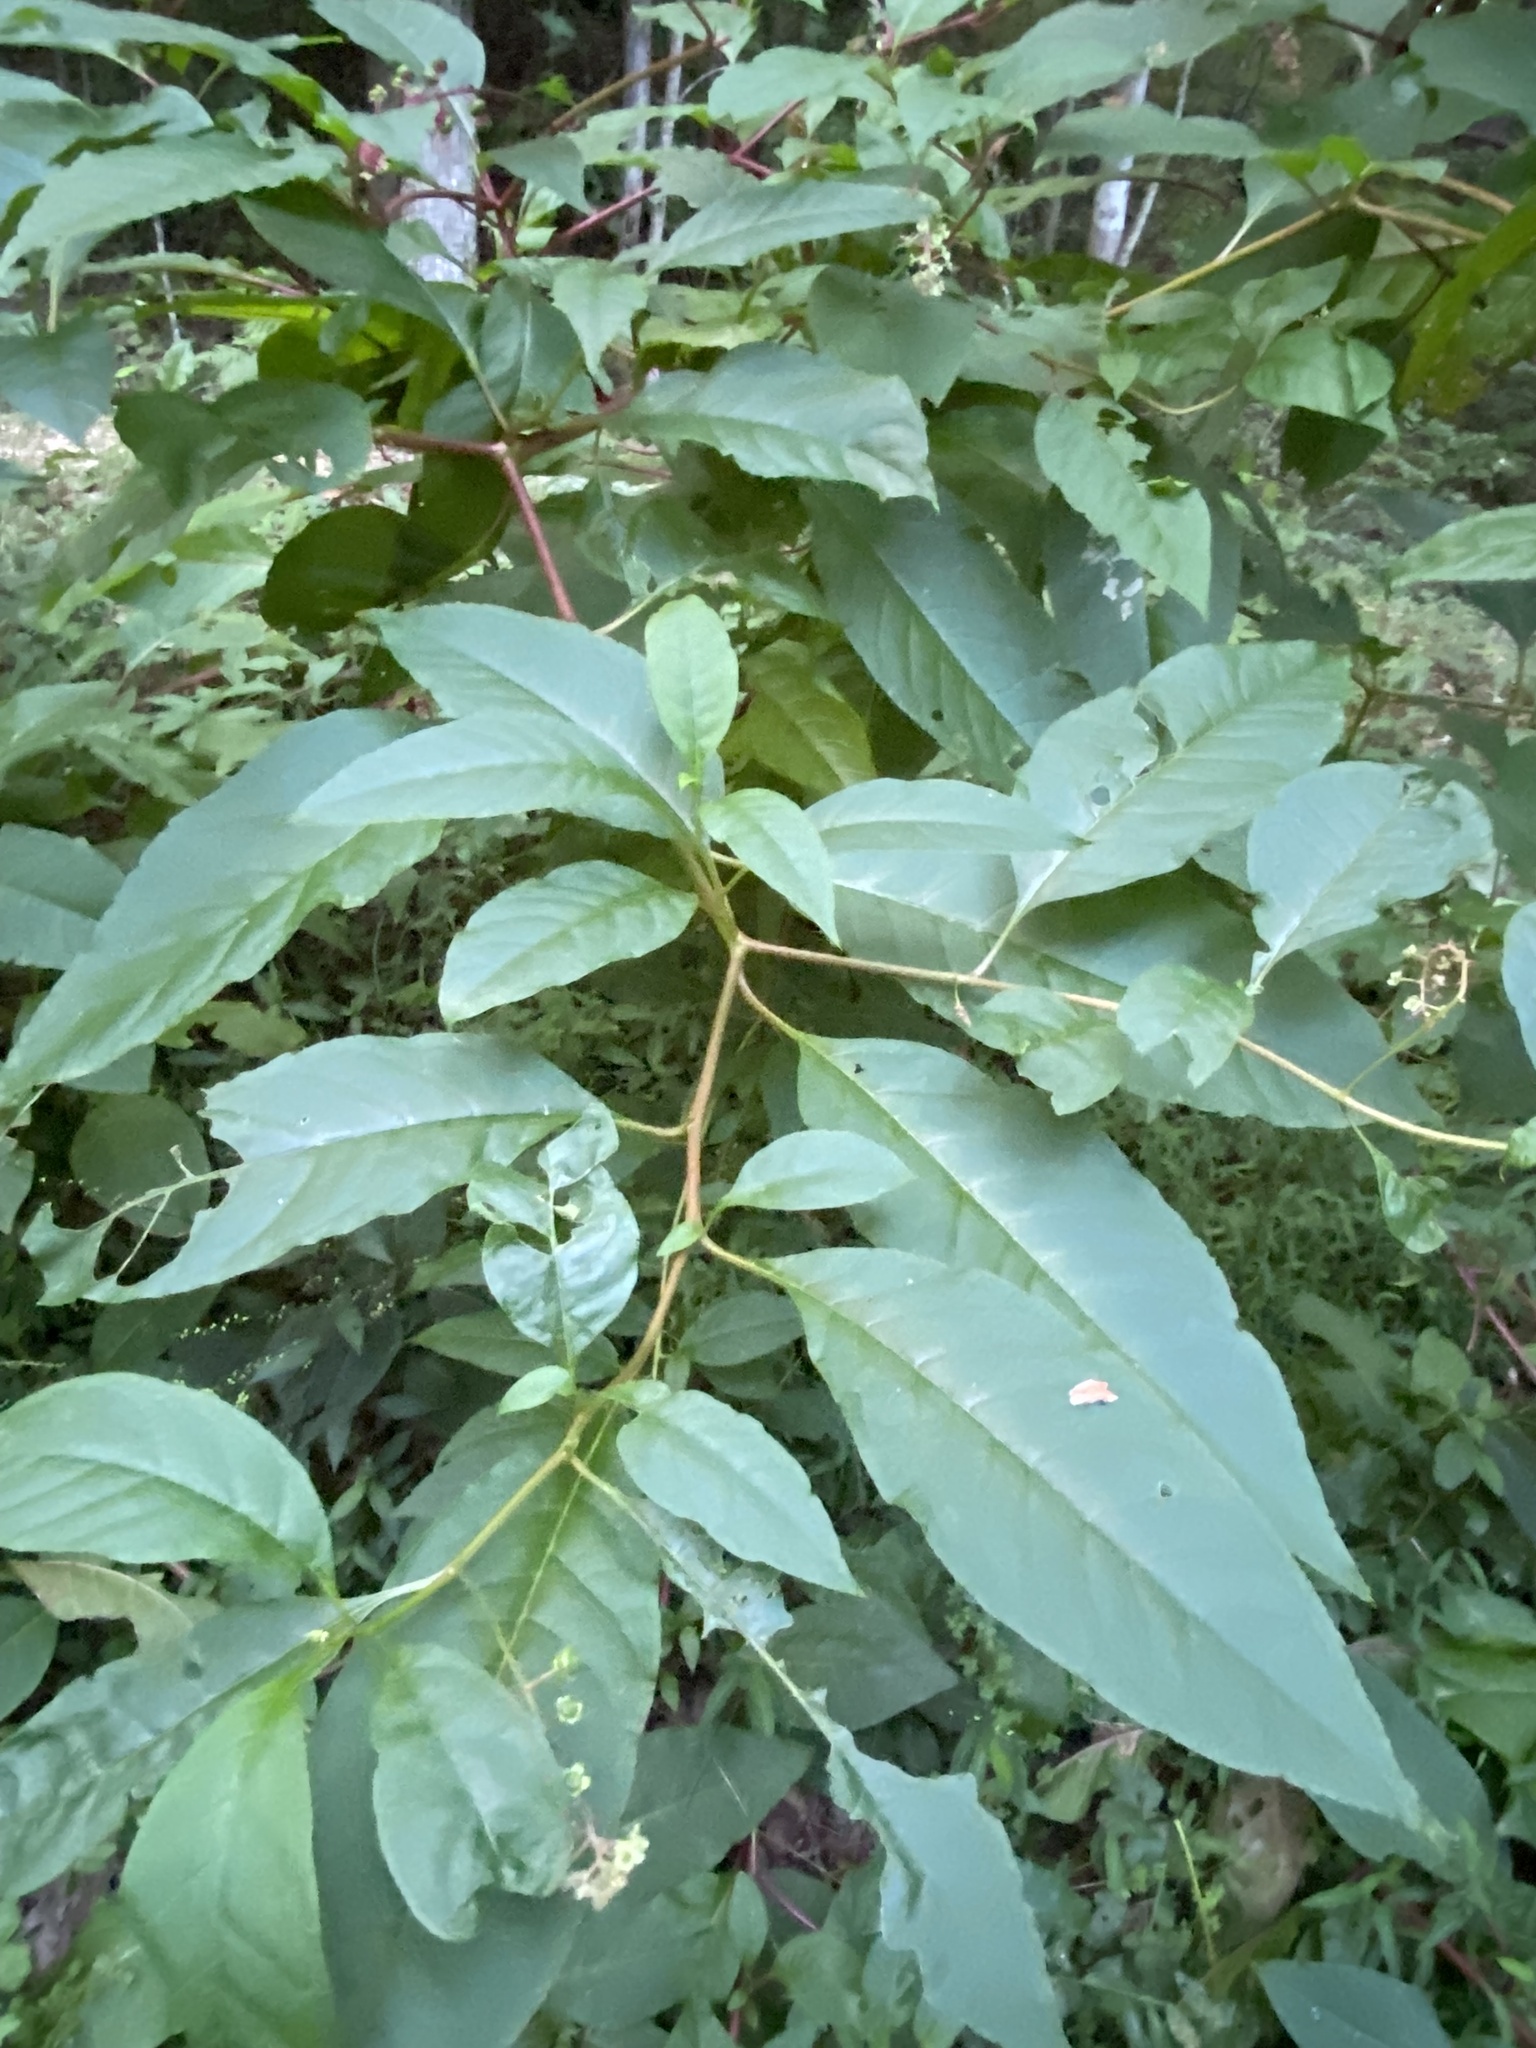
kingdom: Plantae
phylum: Tracheophyta
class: Magnoliopsida
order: Caryophyllales
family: Phytolaccaceae
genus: Phytolacca
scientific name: Phytolacca americana
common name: American pokeweed
